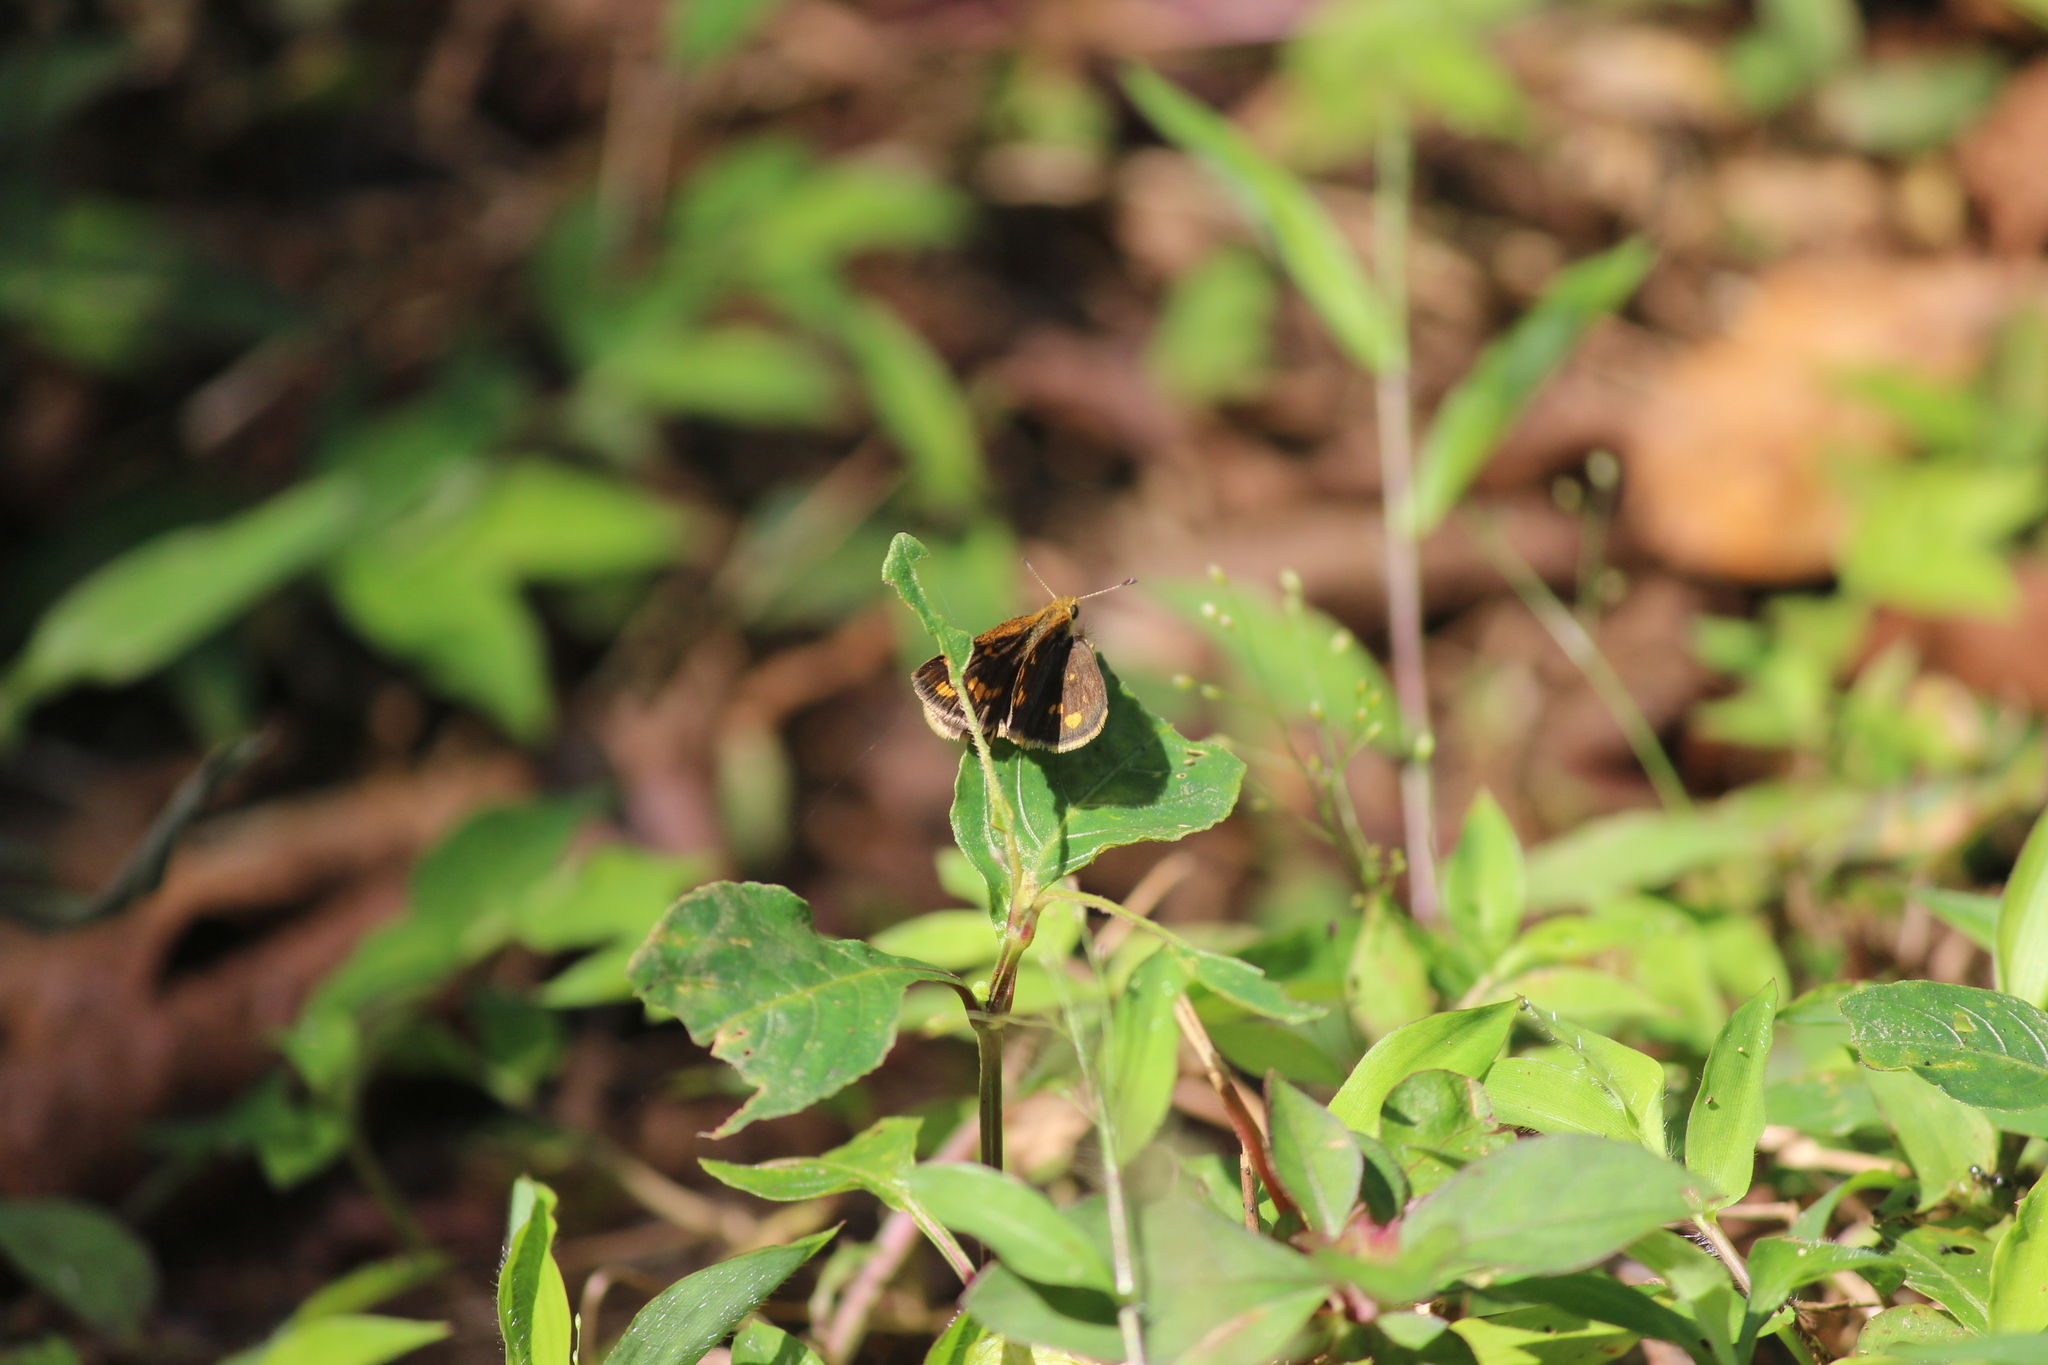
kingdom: Animalia
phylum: Arthropoda
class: Insecta
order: Lepidoptera
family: Hesperiidae
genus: Taractrocera
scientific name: Taractrocera ceramas
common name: Tamil grass dart
